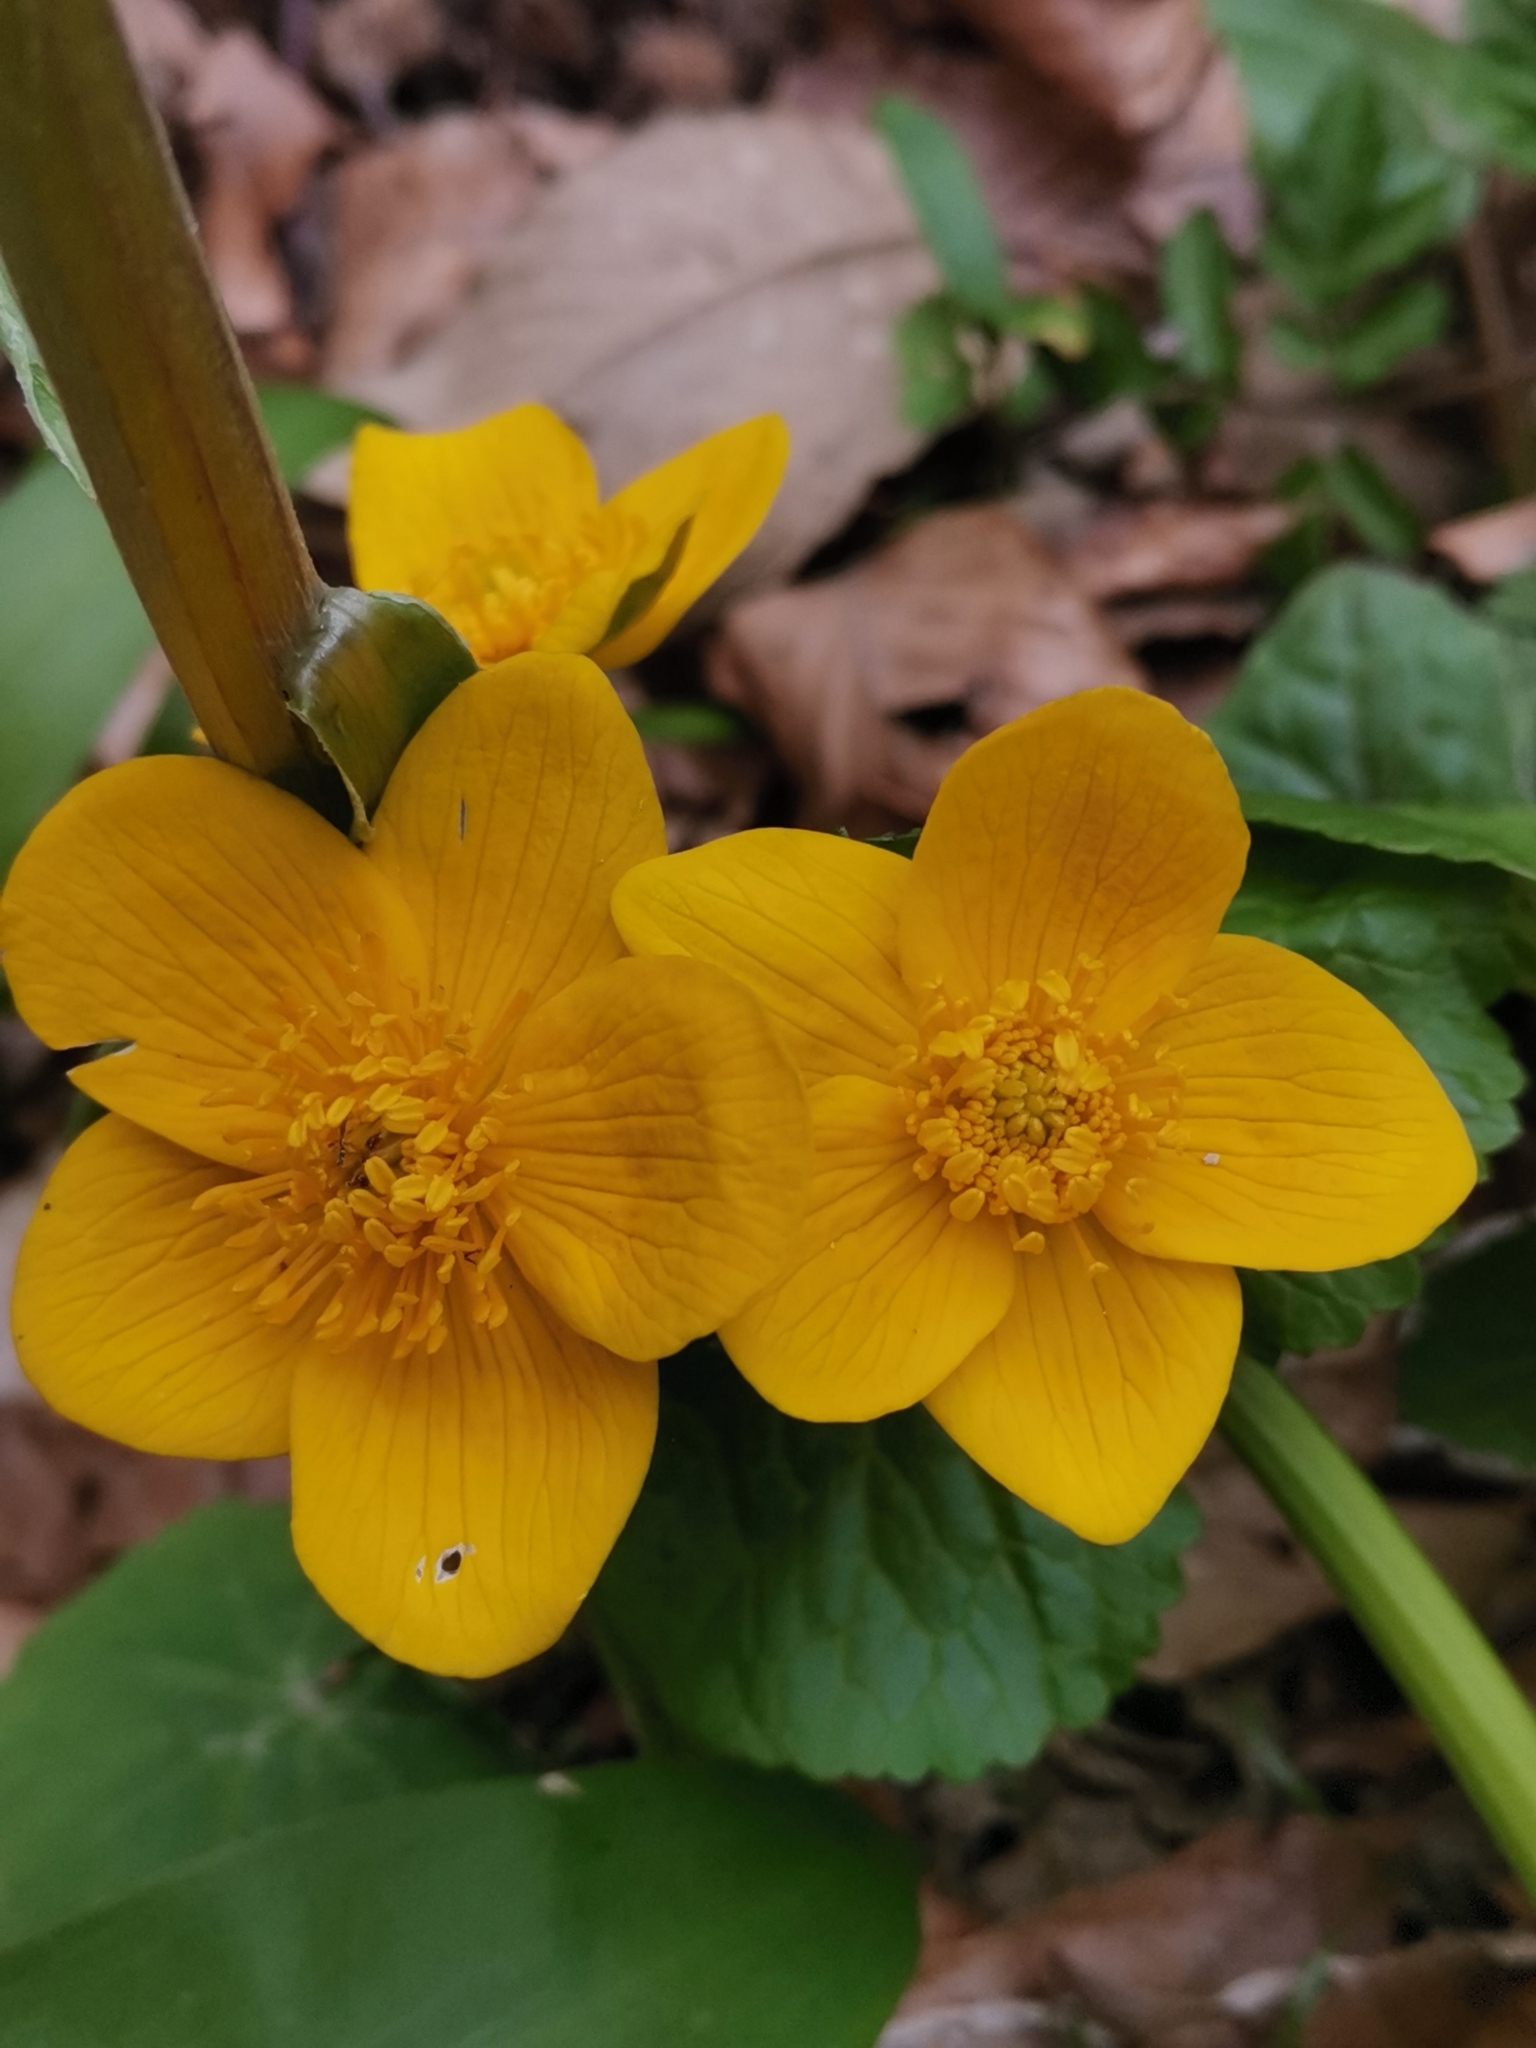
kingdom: Plantae
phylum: Tracheophyta
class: Magnoliopsida
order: Ranunculales
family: Ranunculaceae
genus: Caltha
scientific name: Caltha palustris
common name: Marsh marigold
